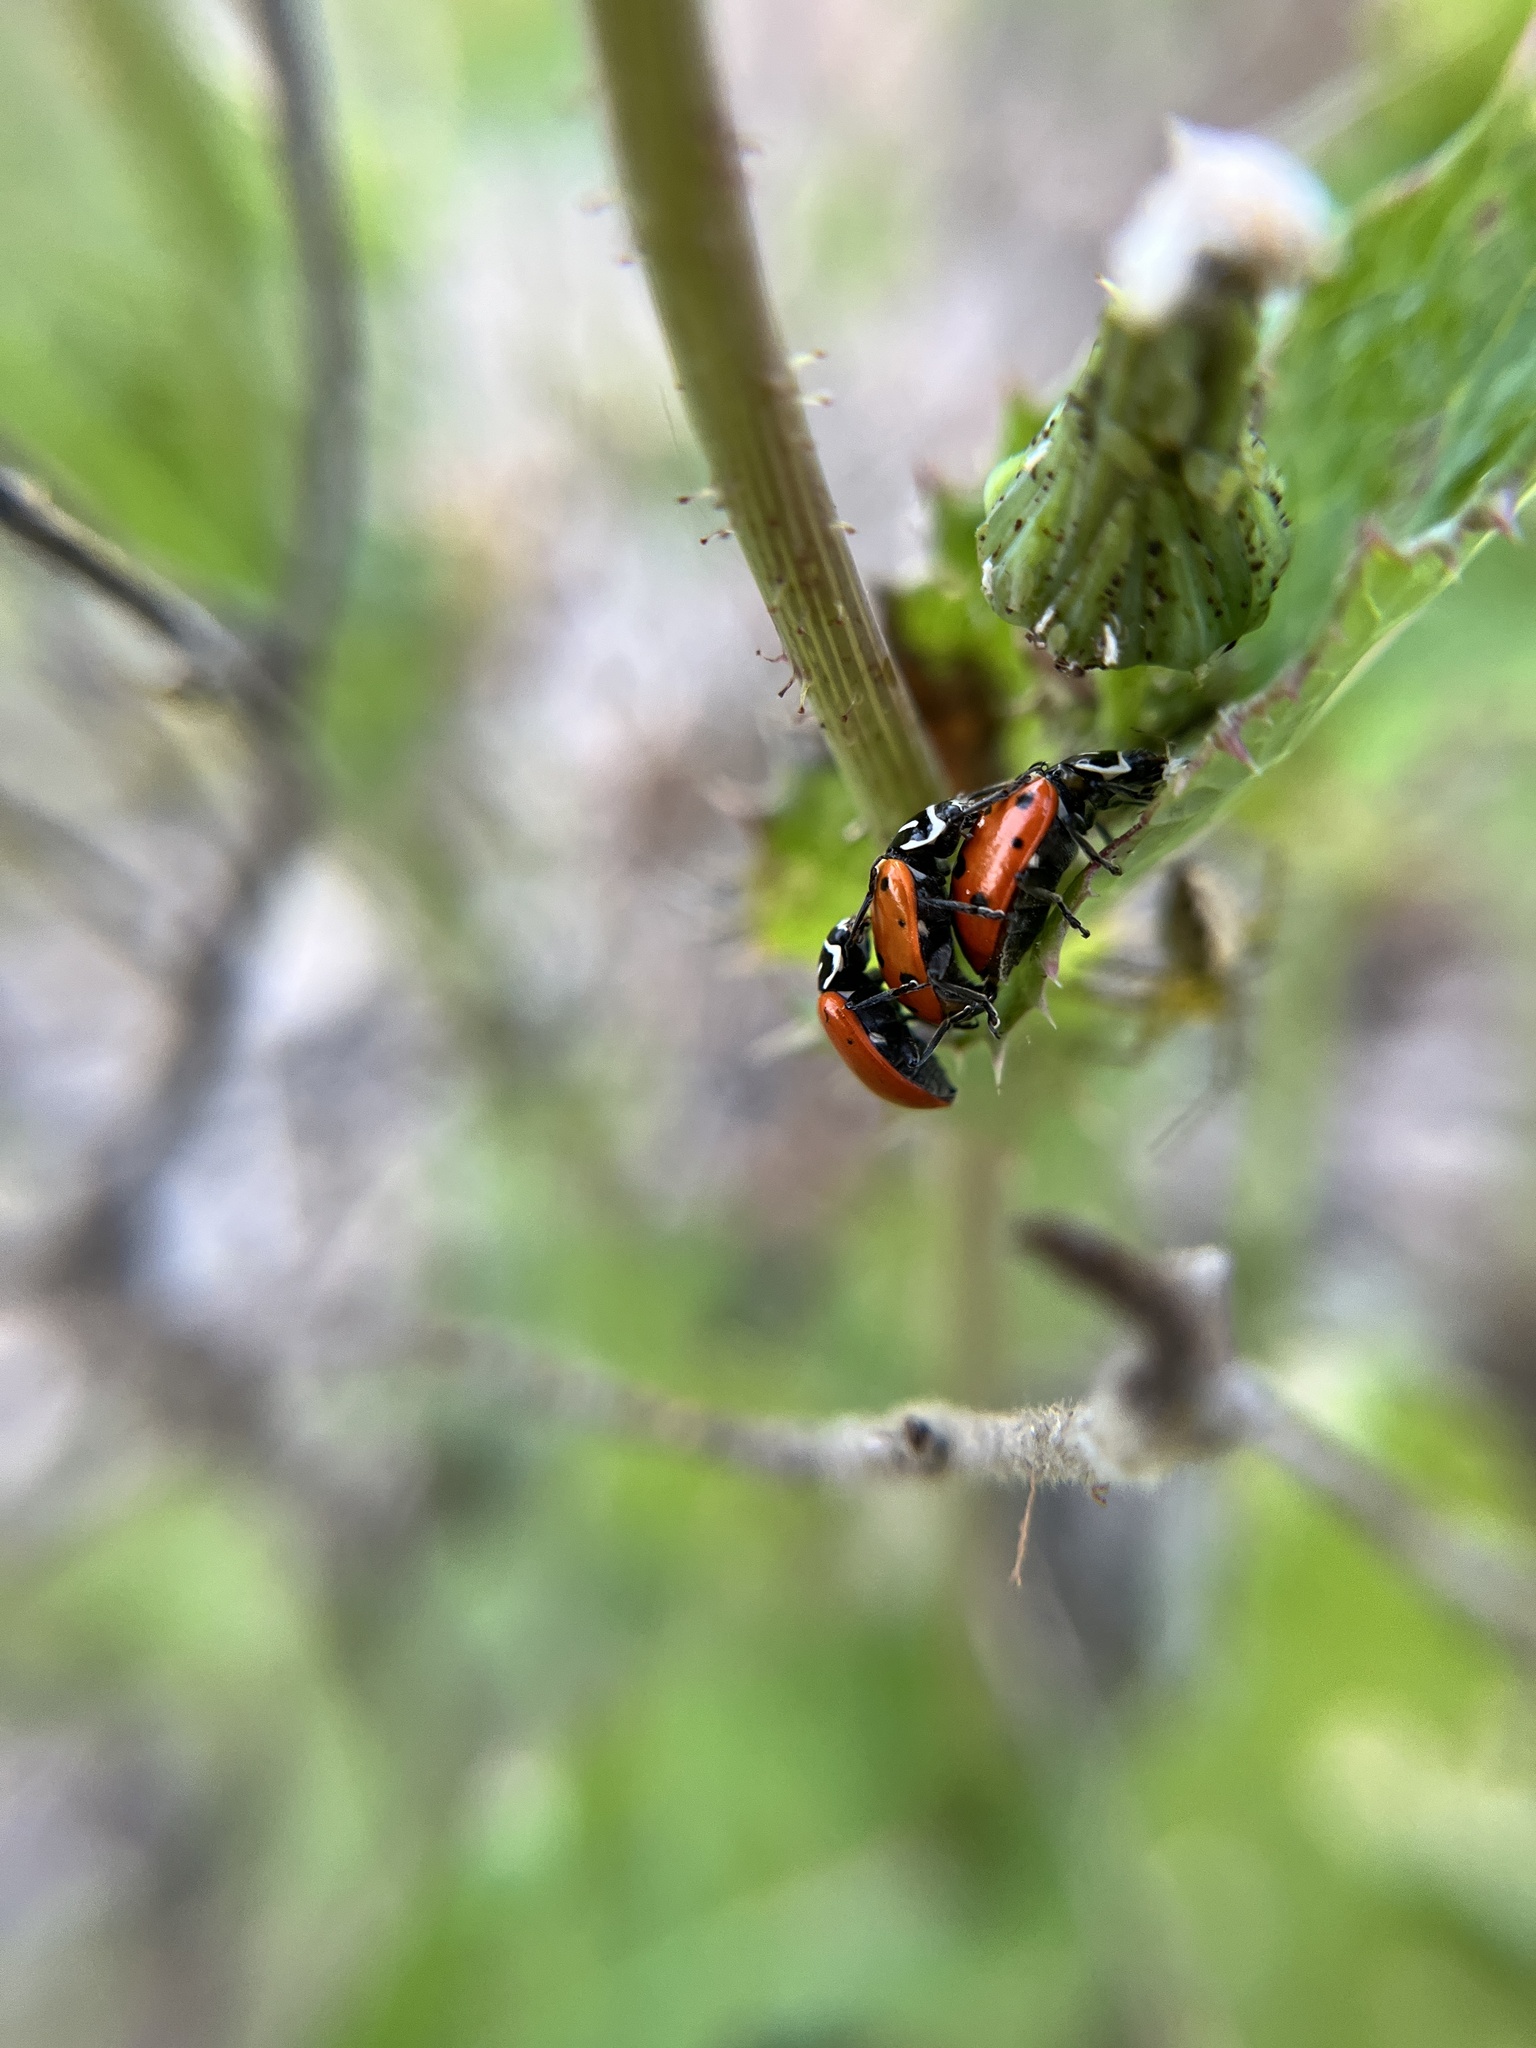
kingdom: Animalia
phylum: Arthropoda
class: Insecta
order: Coleoptera
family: Coccinellidae
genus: Hippodamia
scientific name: Hippodamia convergens
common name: Convergent lady beetle
